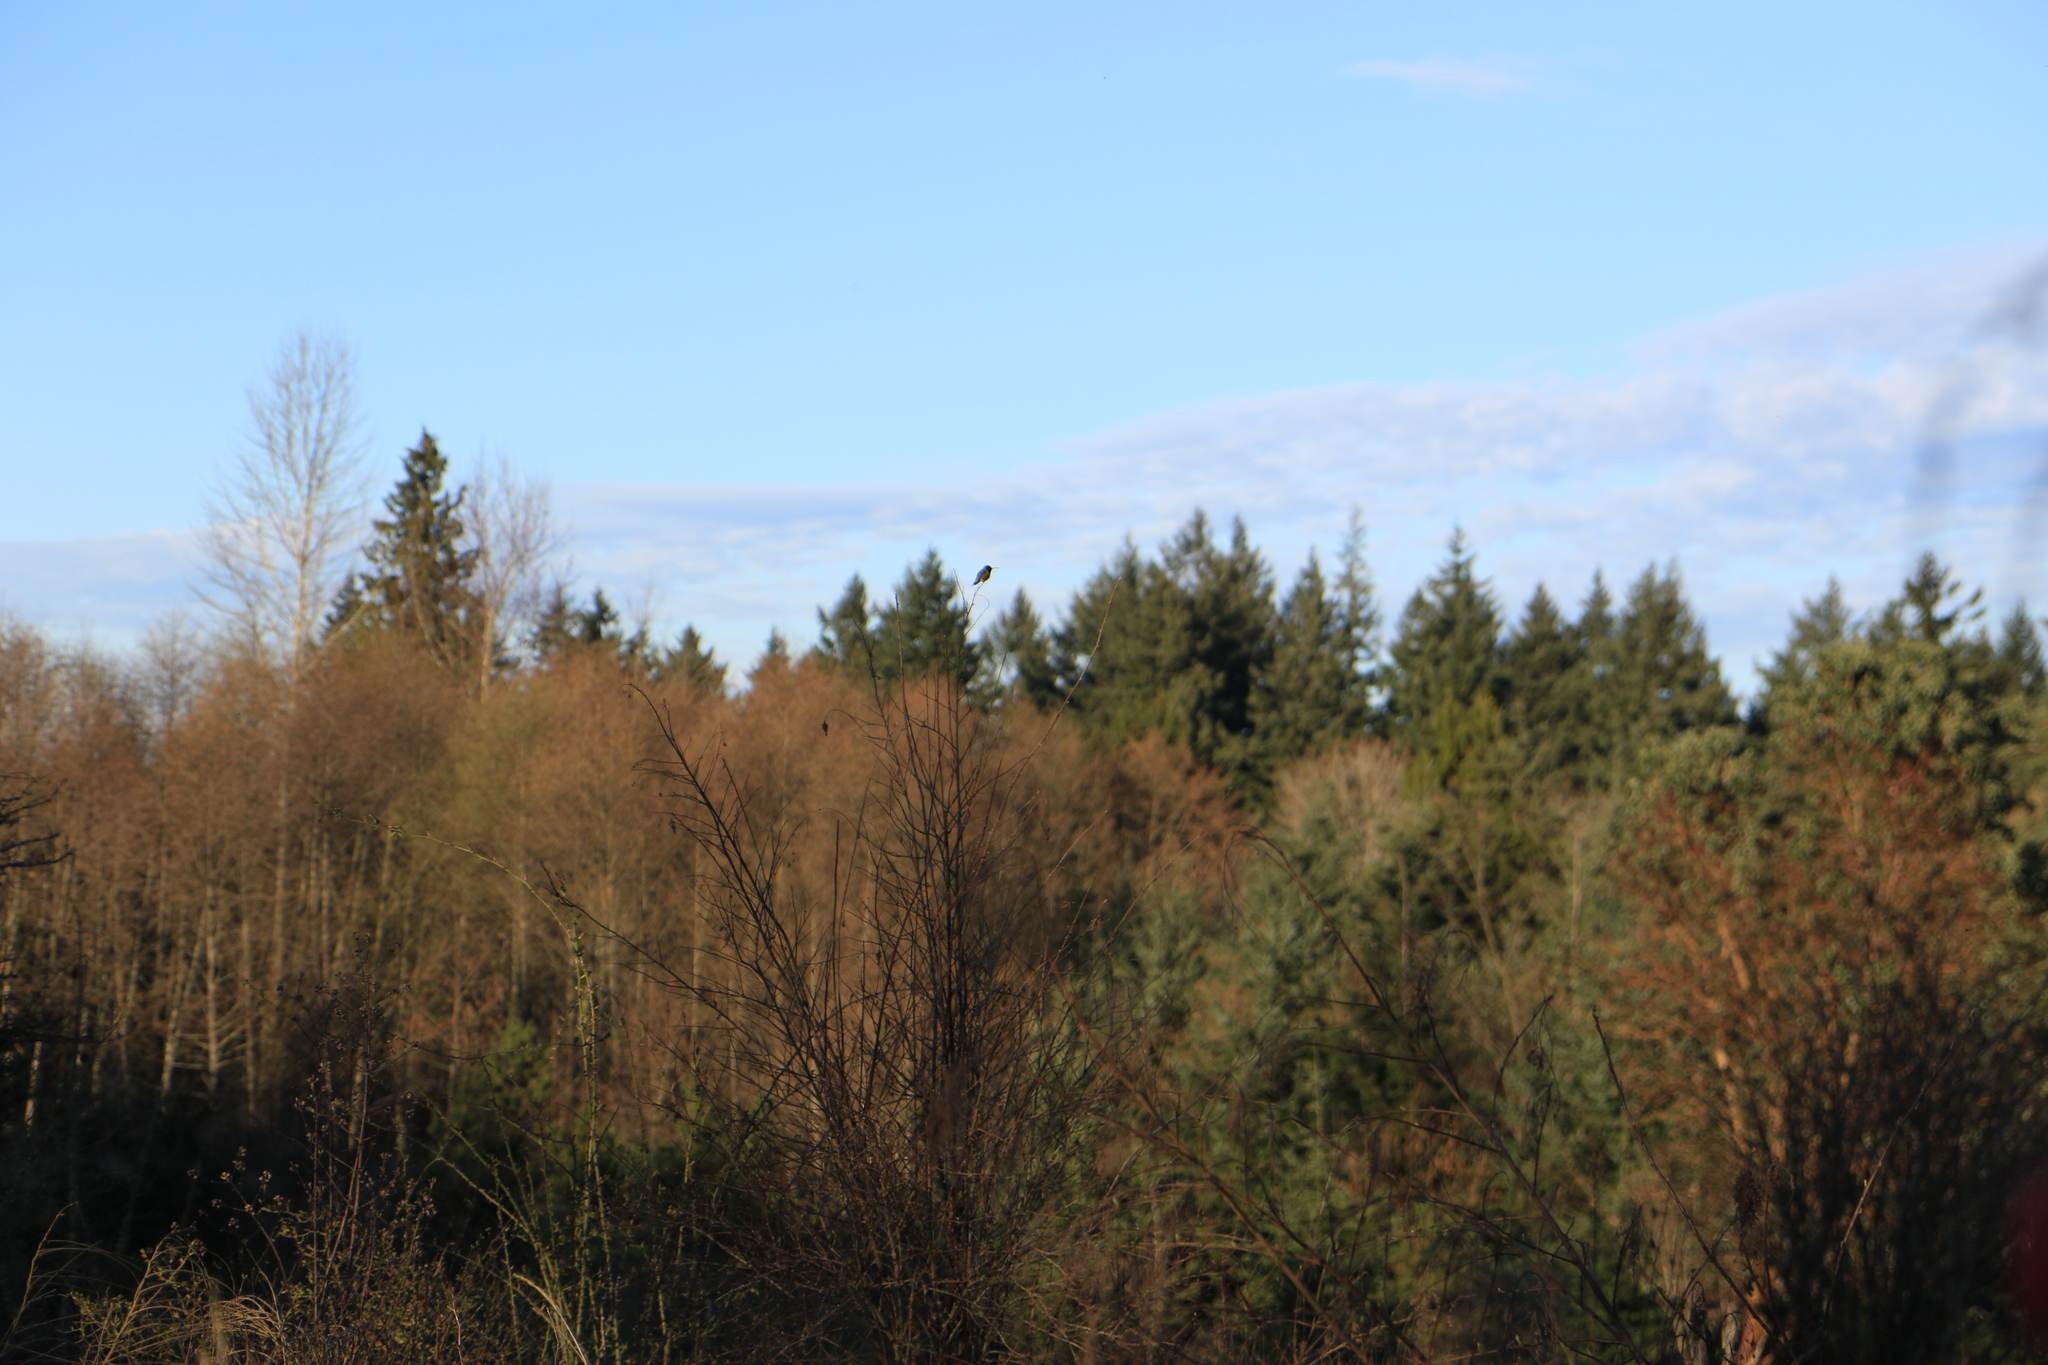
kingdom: Animalia
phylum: Chordata
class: Aves
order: Apodiformes
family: Trochilidae
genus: Calypte
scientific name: Calypte anna
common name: Anna's hummingbird
